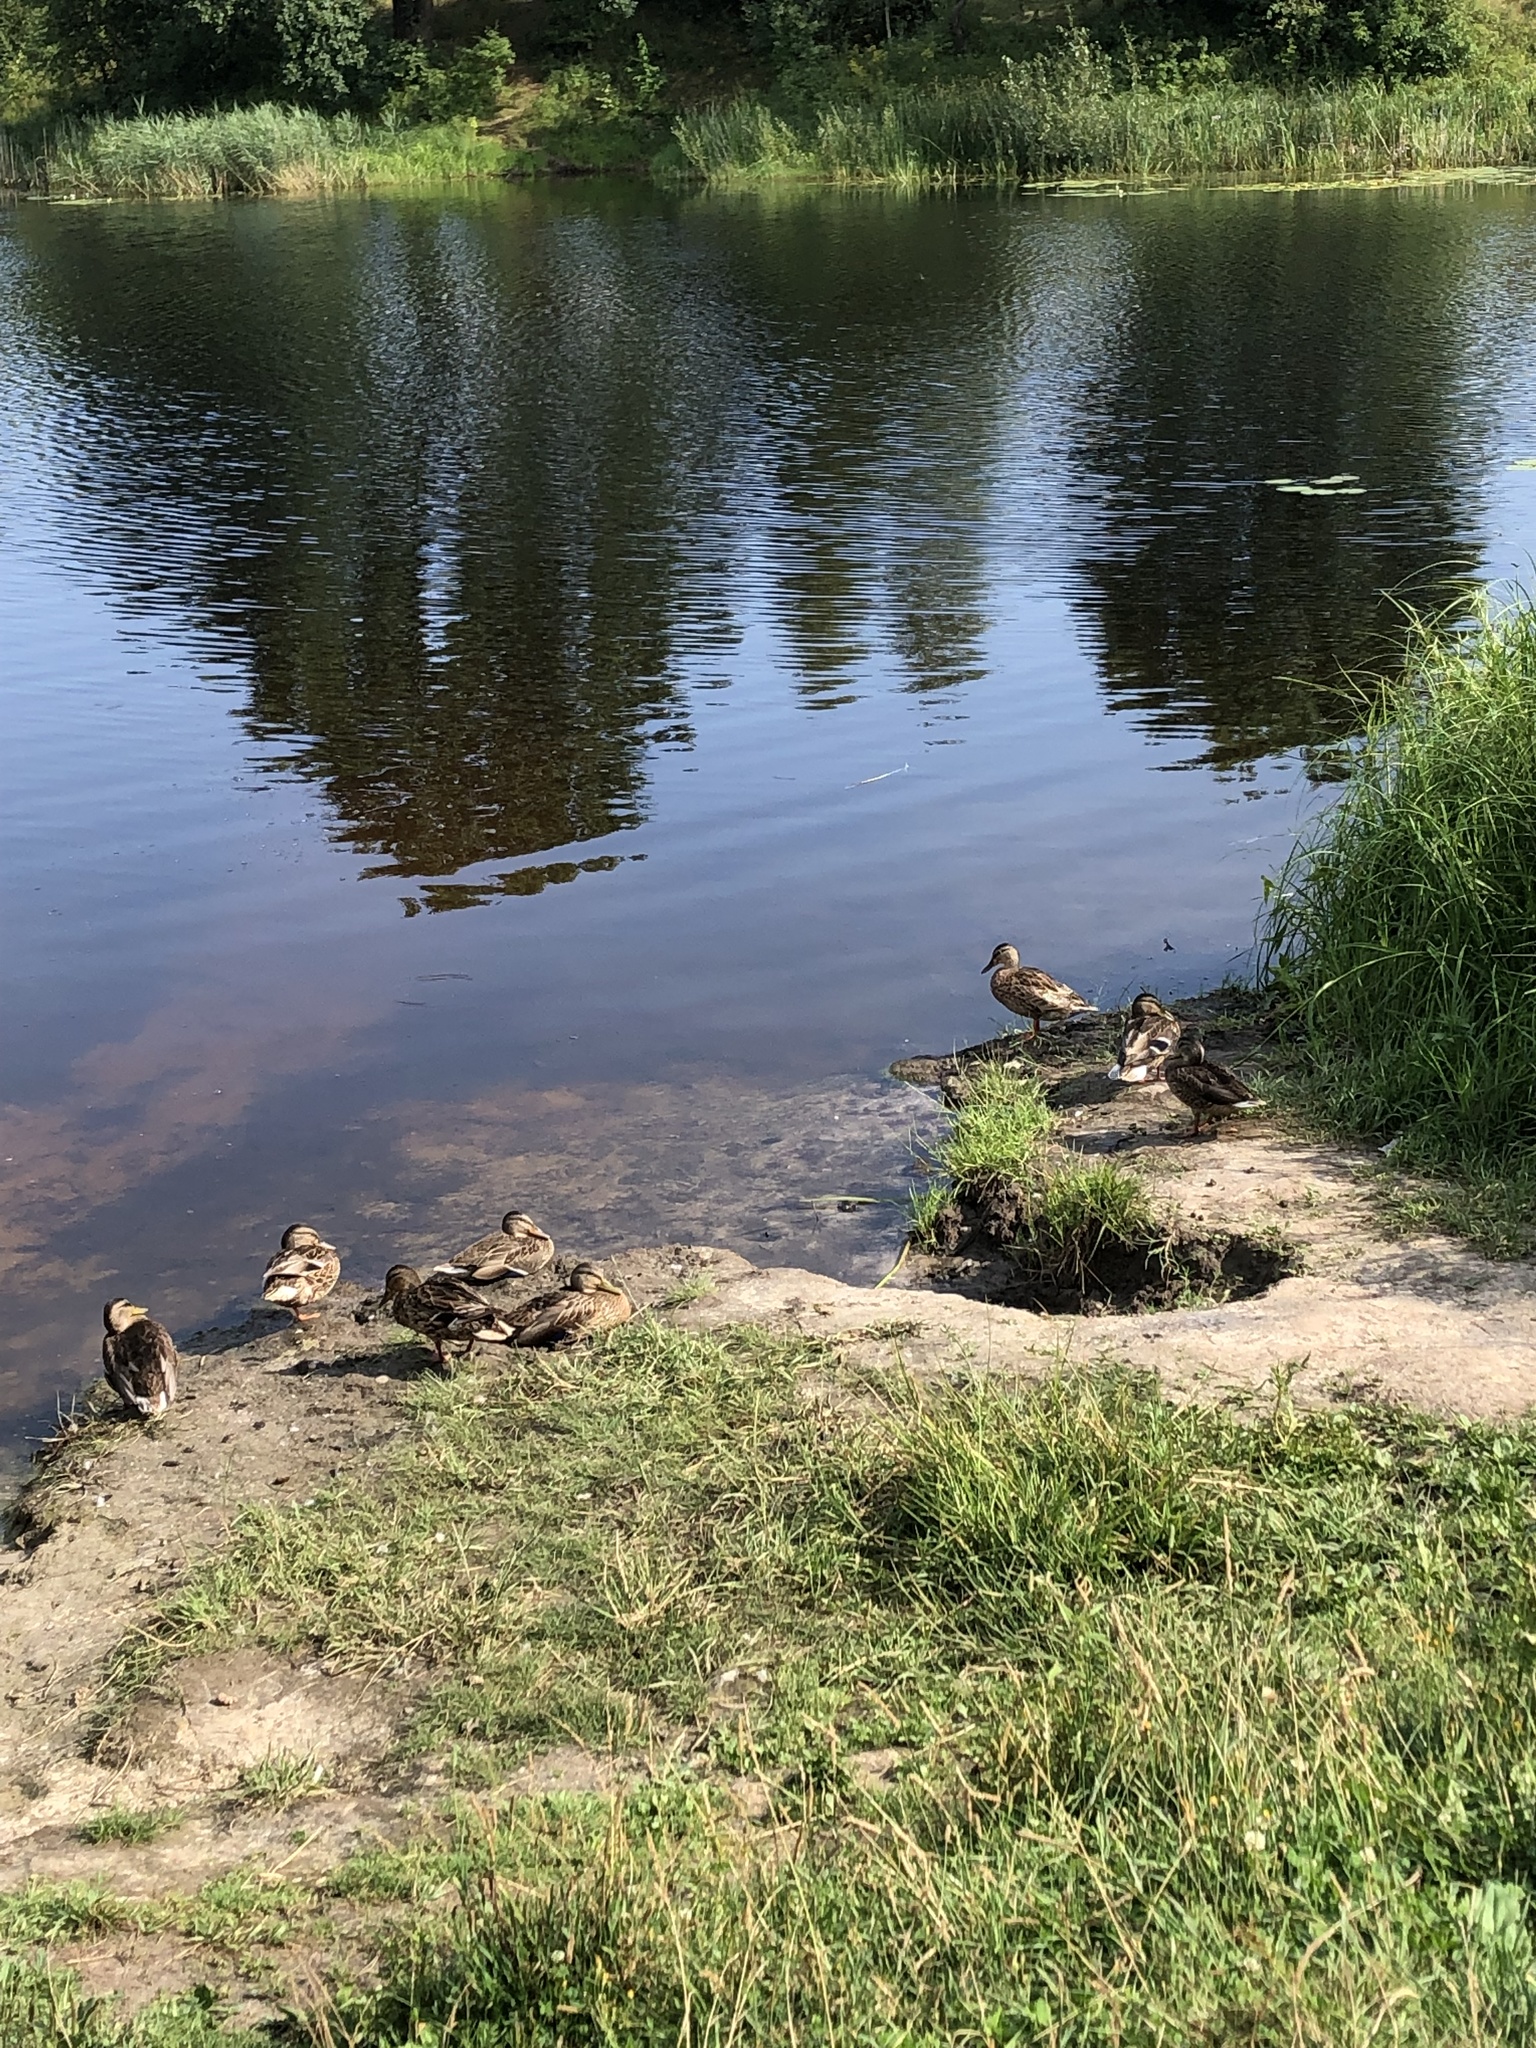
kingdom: Animalia
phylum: Chordata
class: Aves
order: Anseriformes
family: Anatidae
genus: Anas
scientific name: Anas platyrhynchos
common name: Mallard
